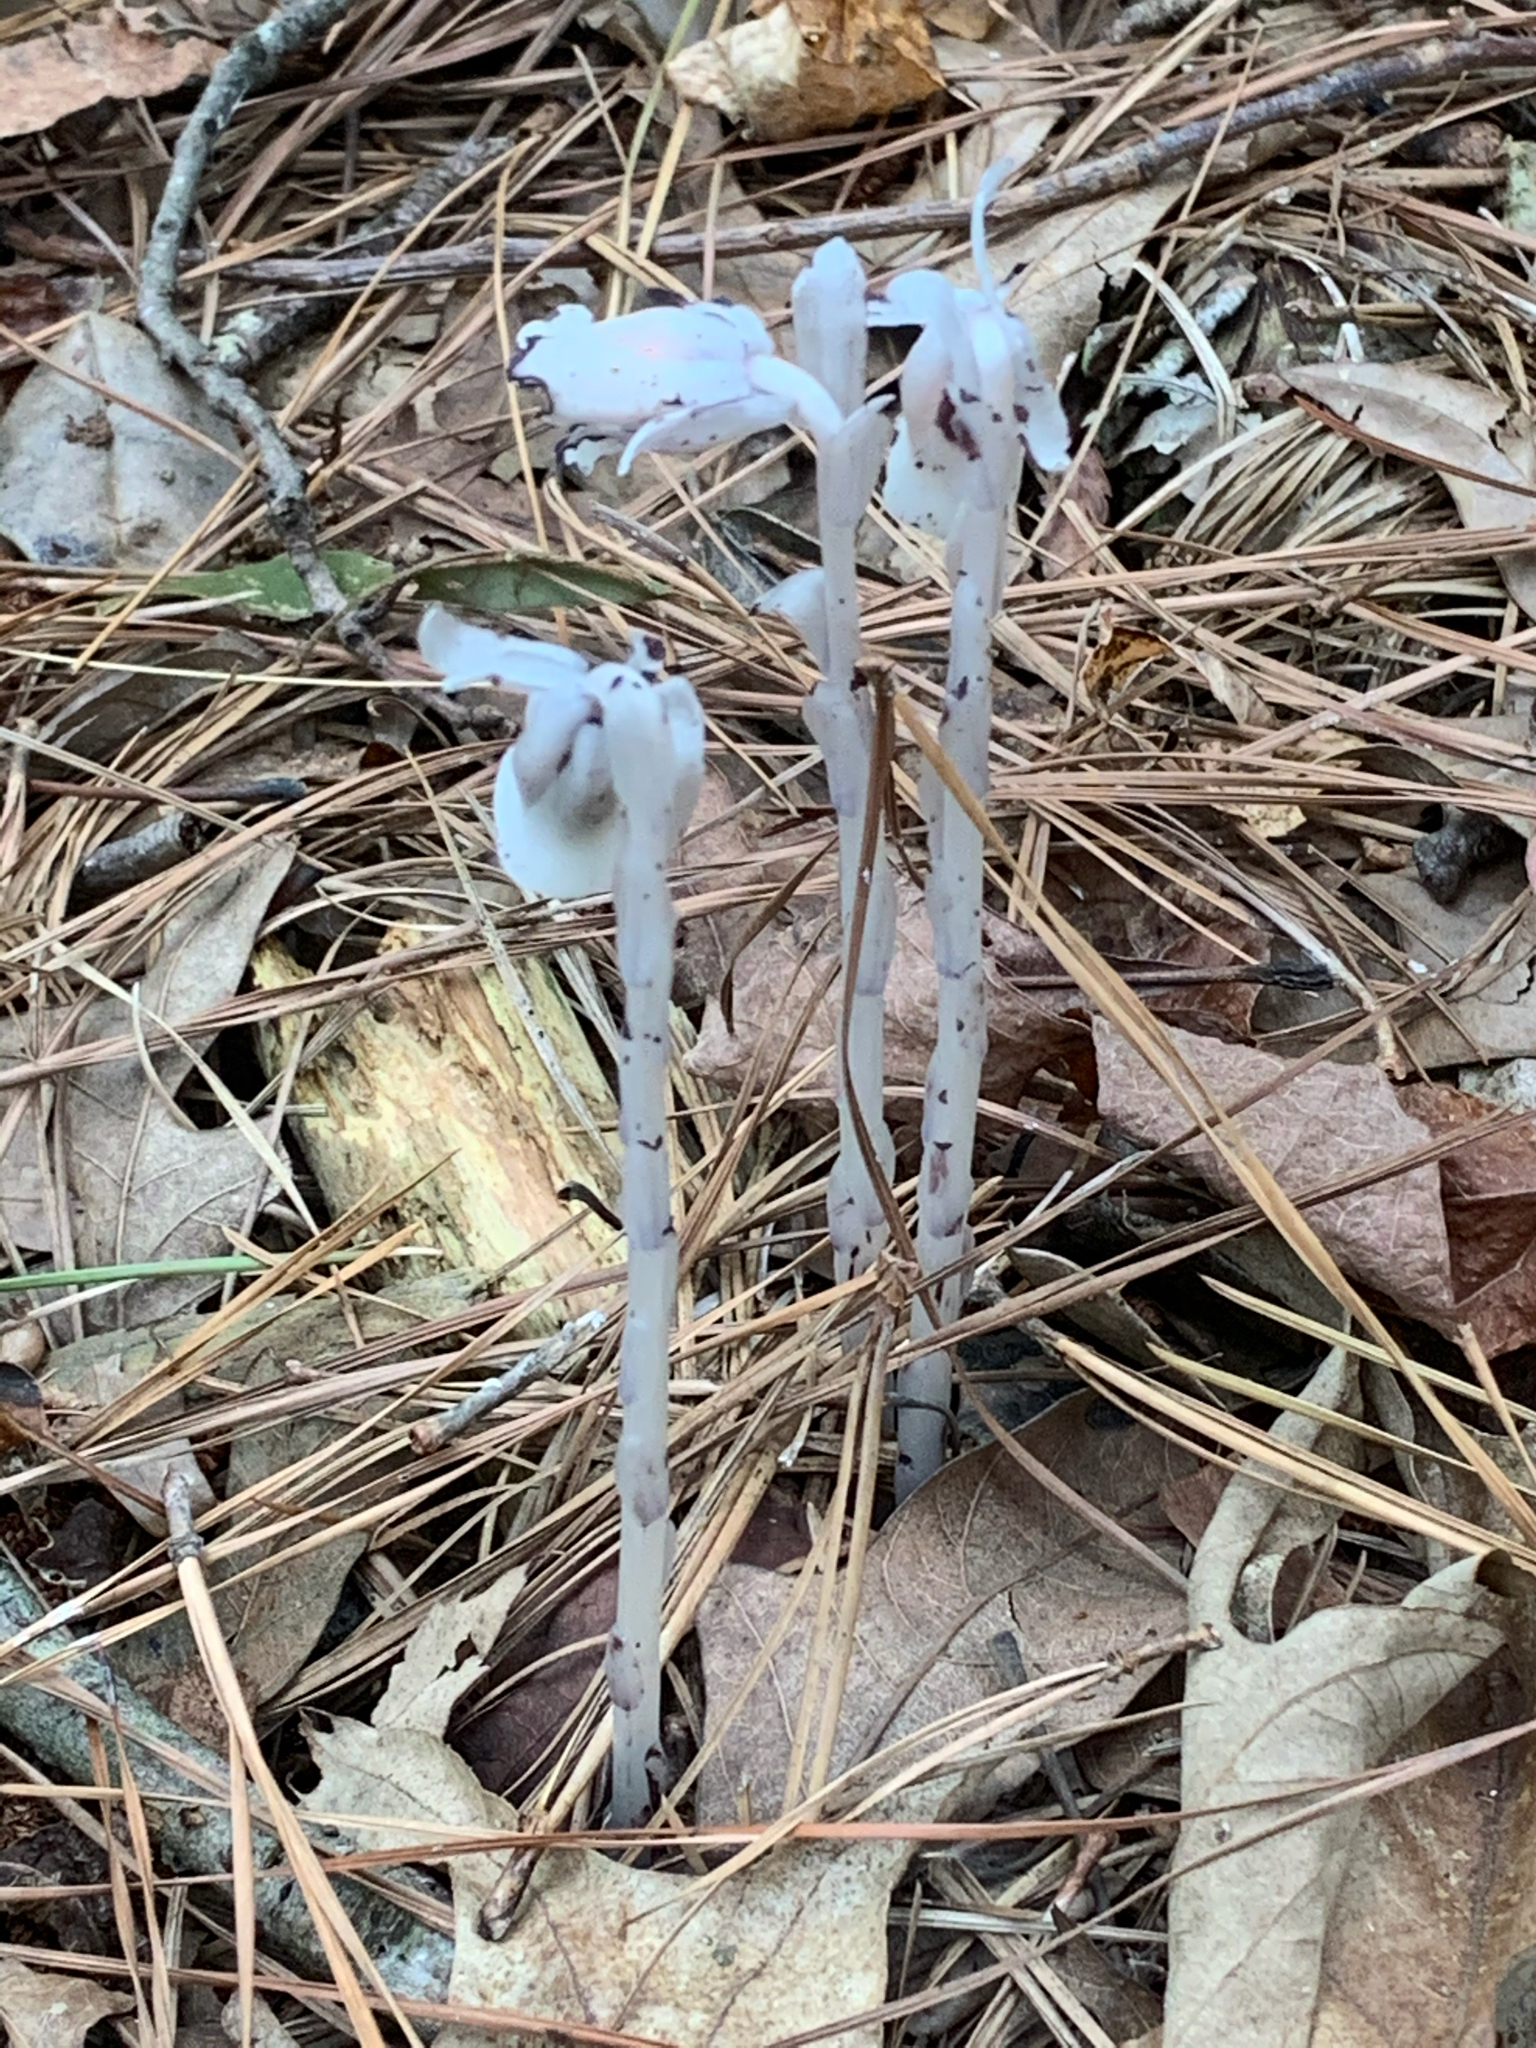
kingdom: Plantae
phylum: Tracheophyta
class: Magnoliopsida
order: Ericales
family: Ericaceae
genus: Monotropa
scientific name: Monotropa uniflora
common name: Convulsion root
